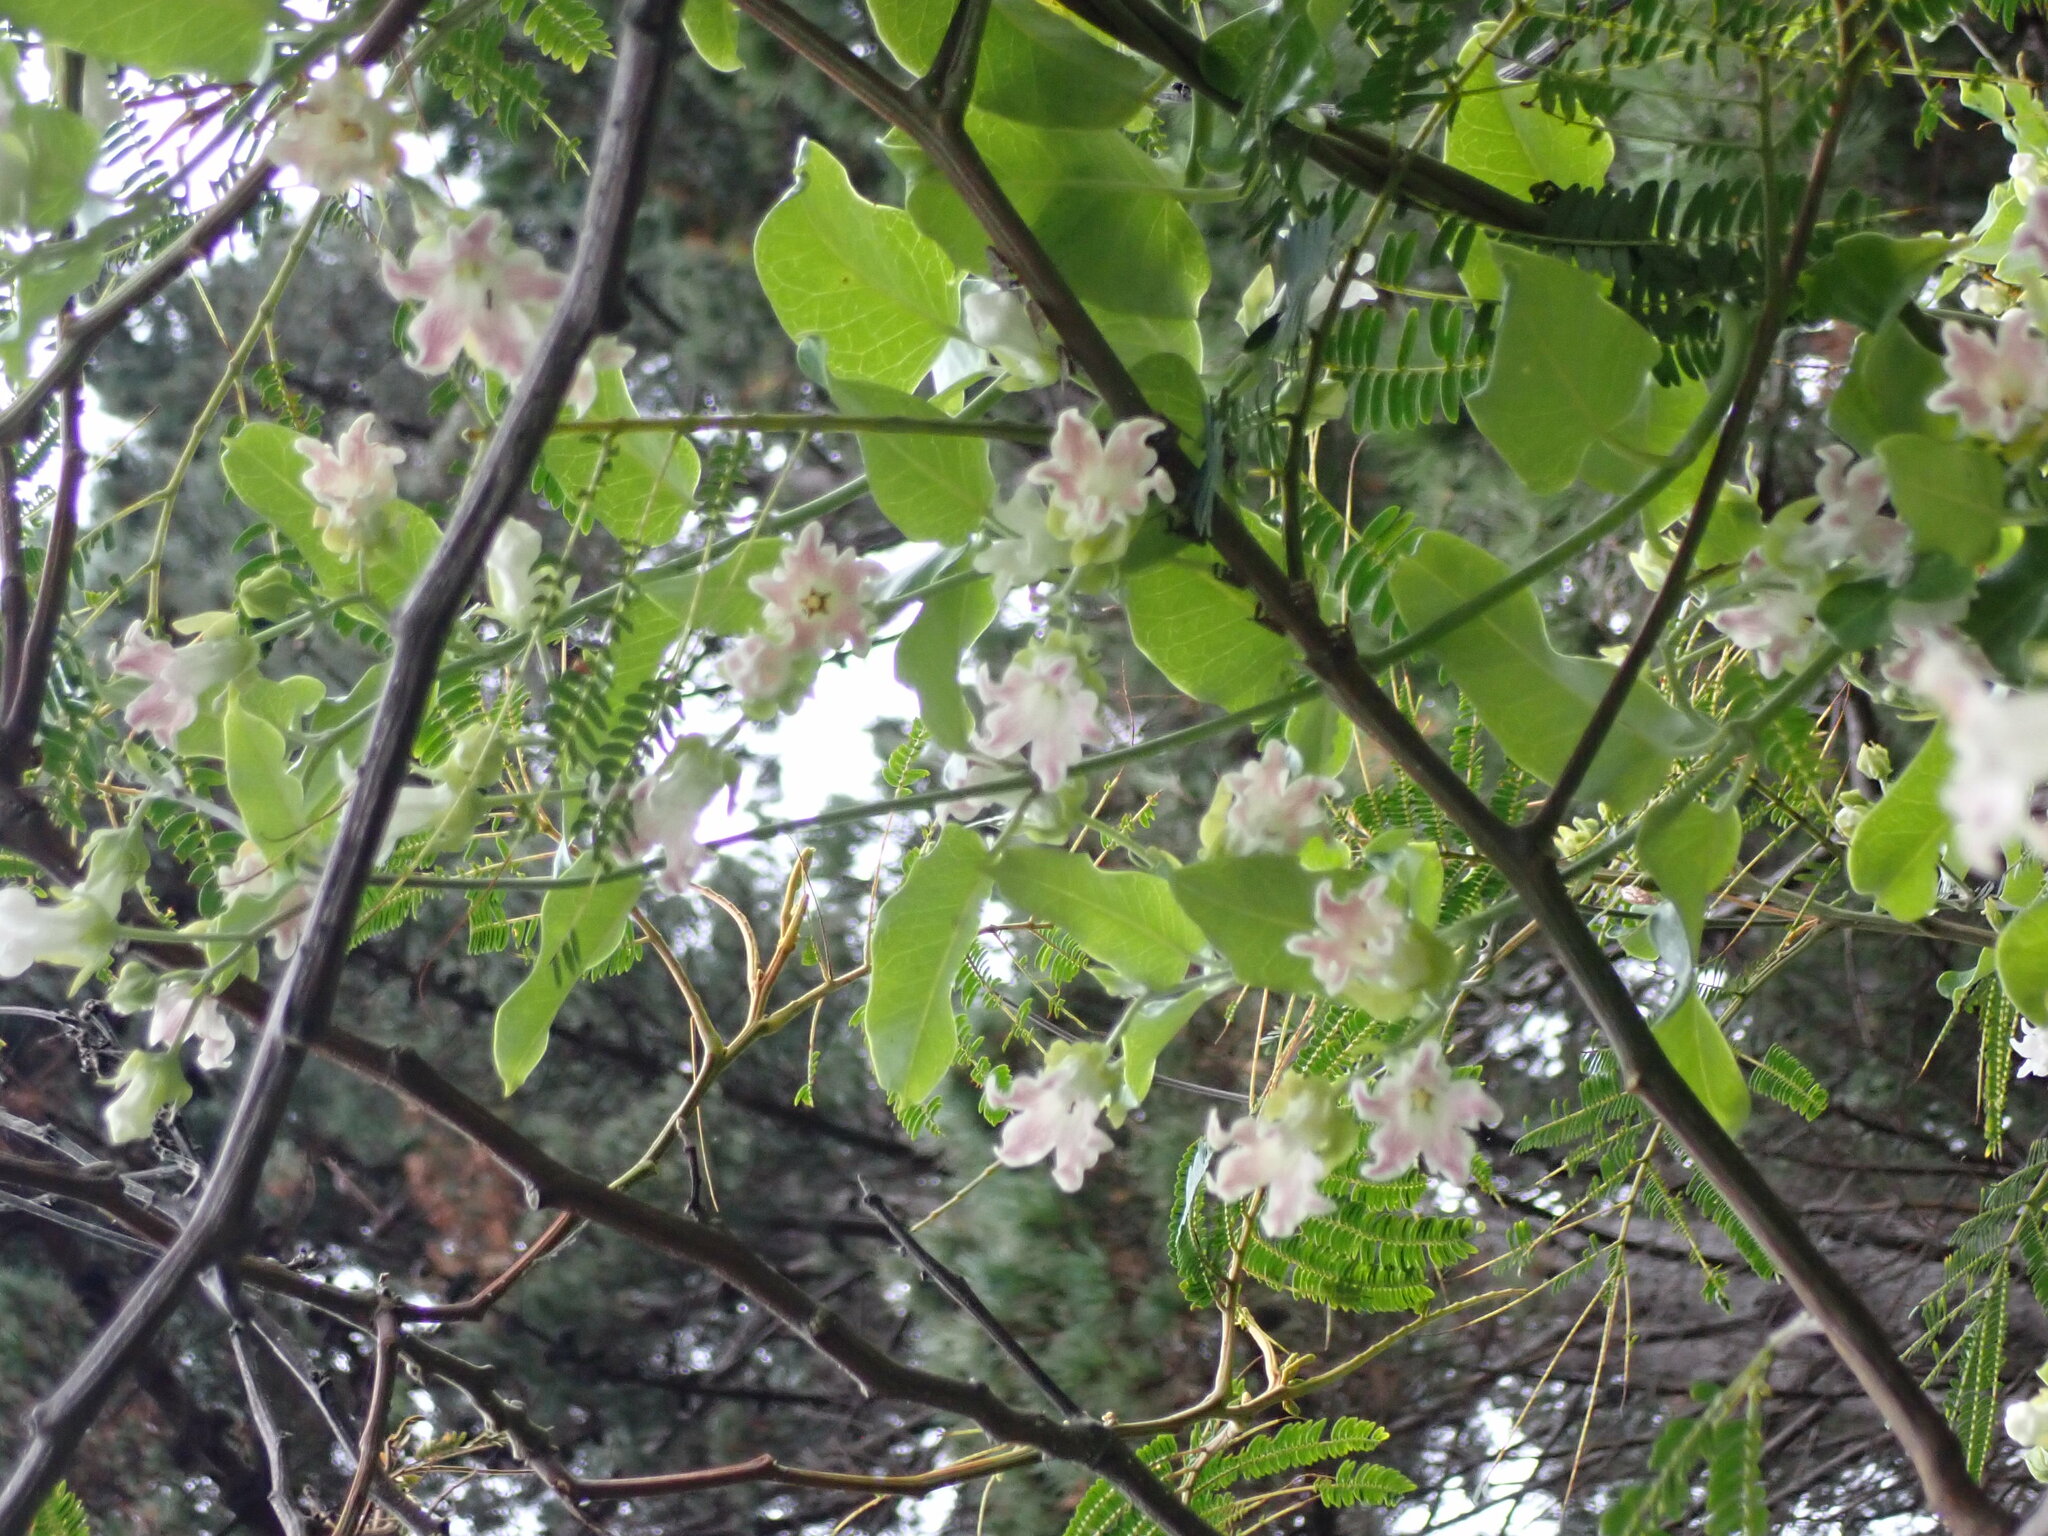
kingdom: Plantae
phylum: Tracheophyta
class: Magnoliopsida
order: Gentianales
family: Apocynaceae
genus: Araujia
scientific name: Araujia sericifera
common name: White bladderflower
